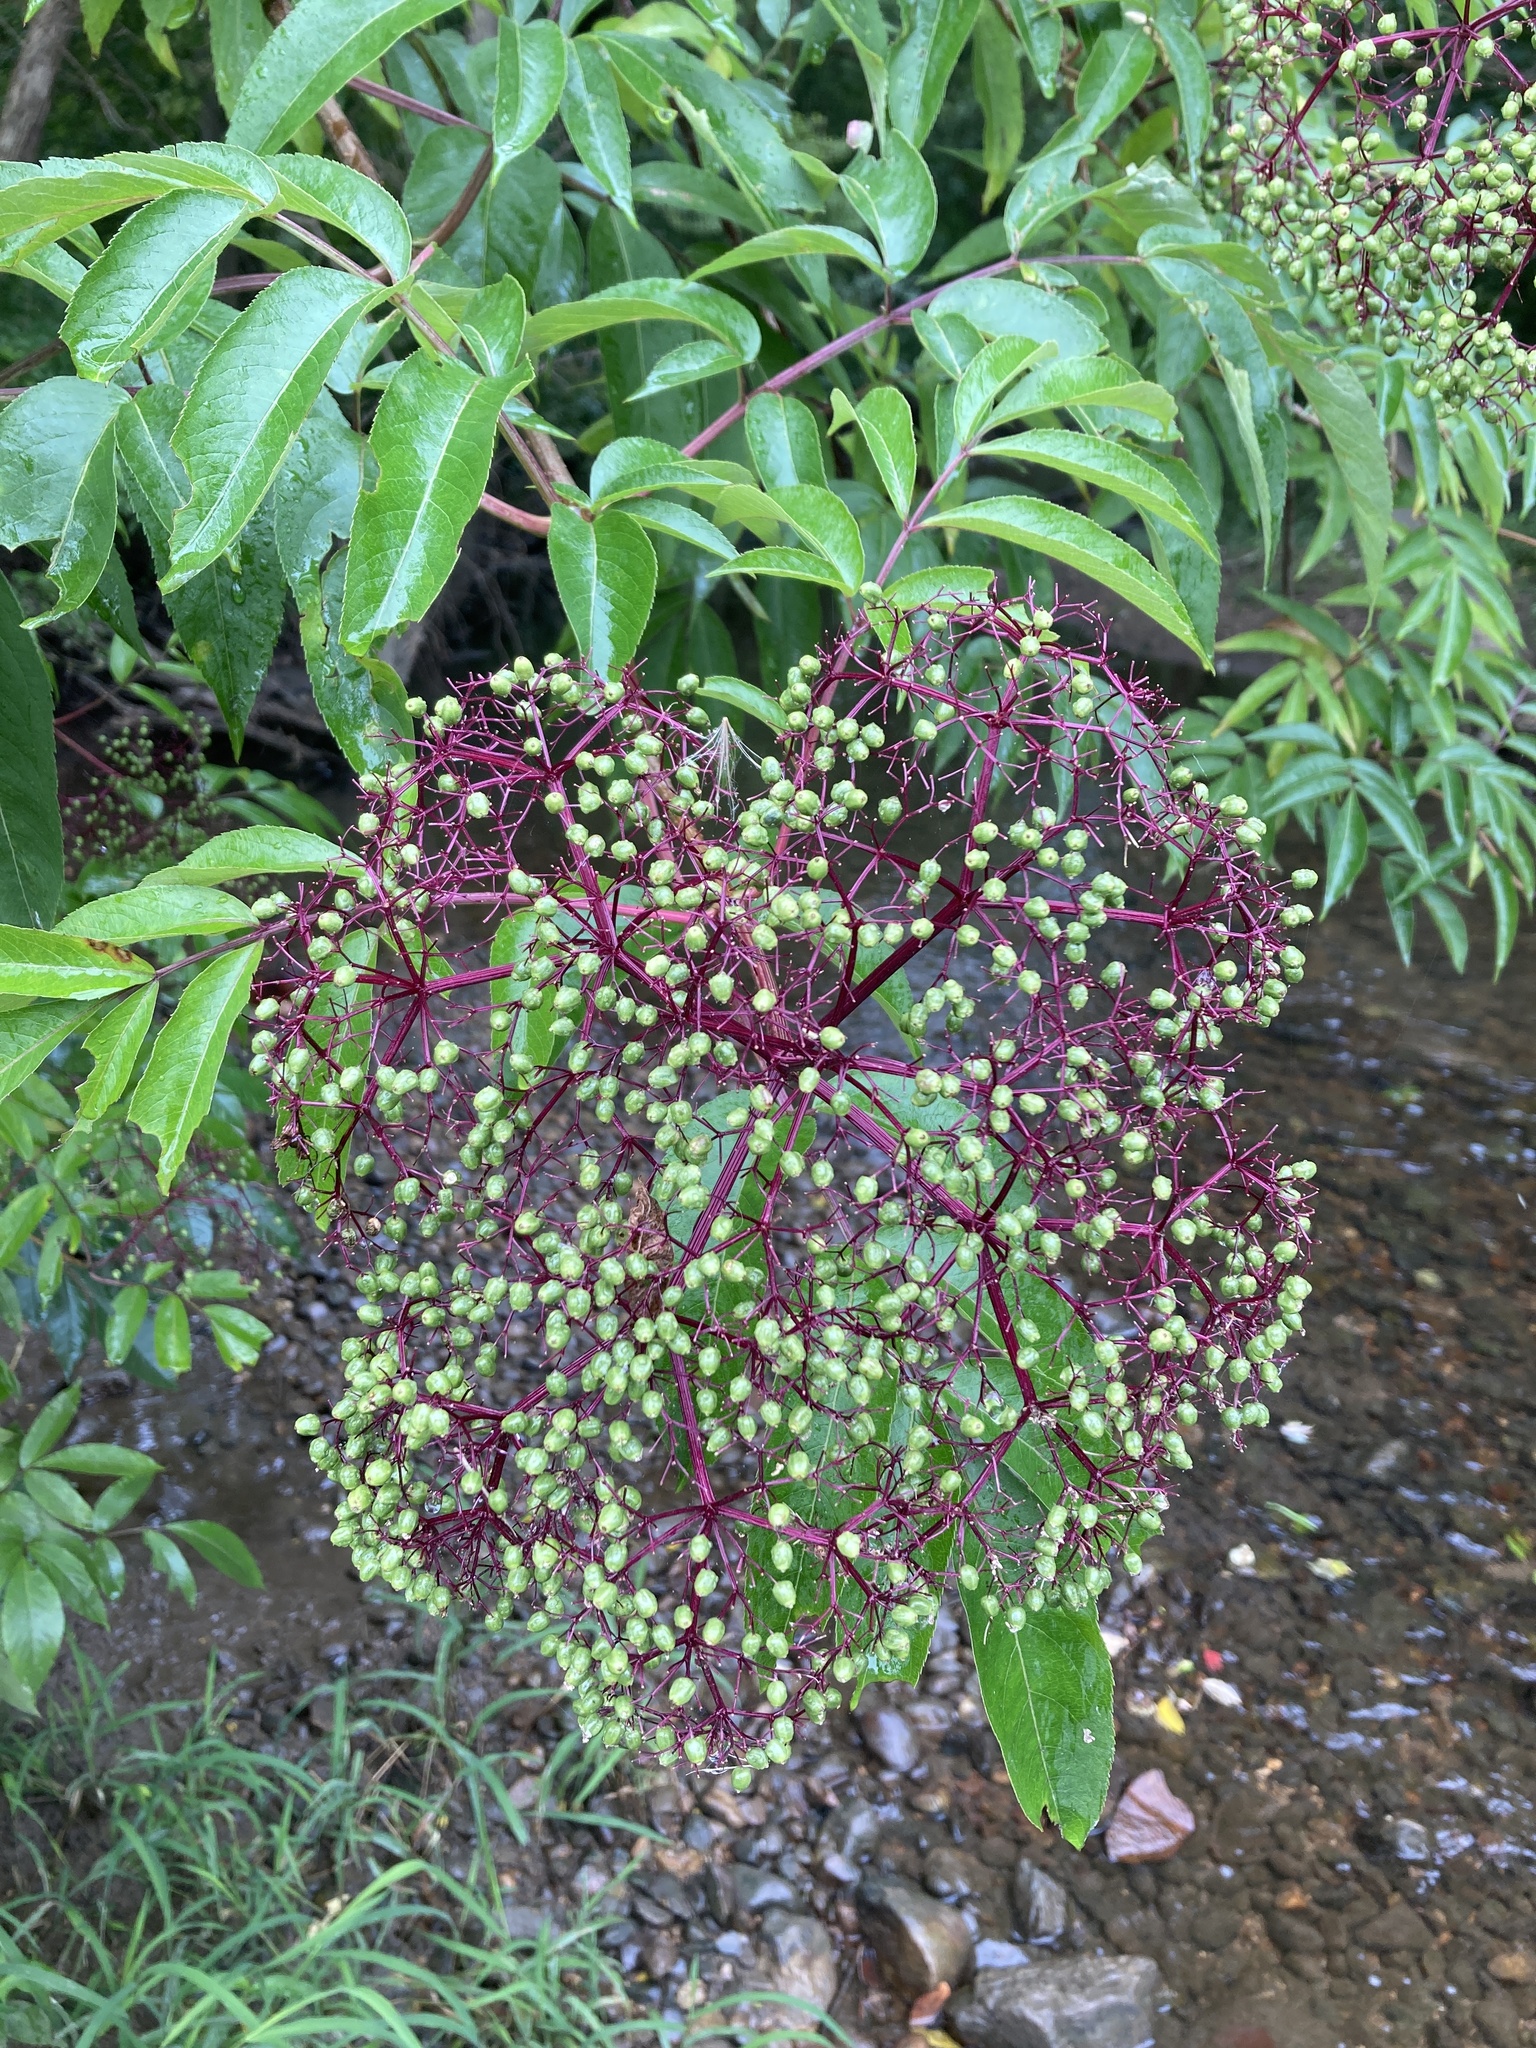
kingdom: Plantae
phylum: Tracheophyta
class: Magnoliopsida
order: Dipsacales
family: Viburnaceae
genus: Sambucus
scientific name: Sambucus canadensis
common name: American elder
